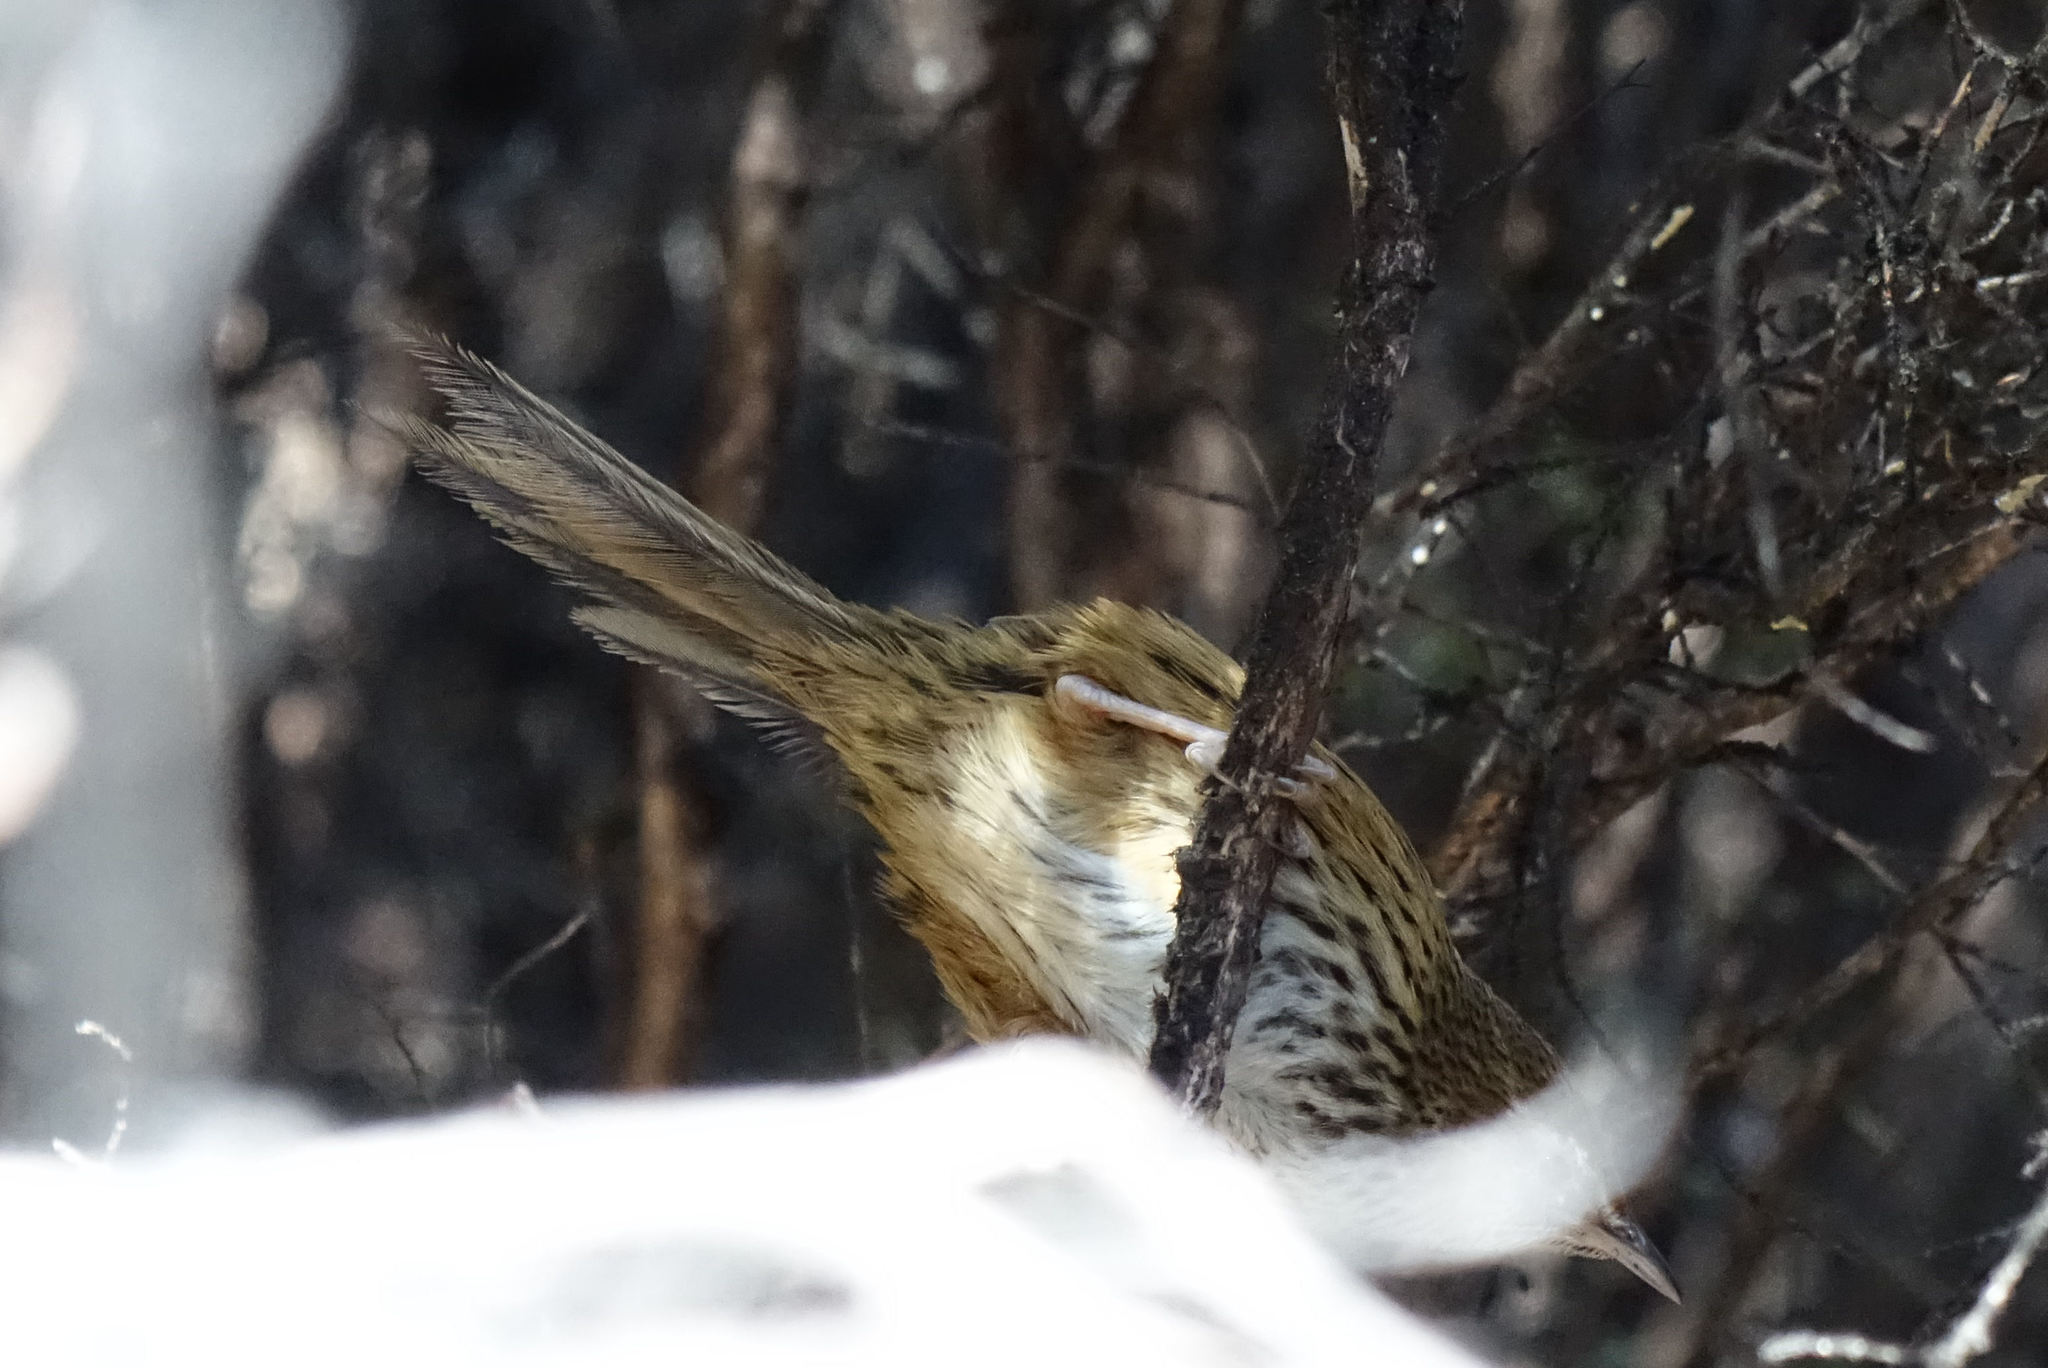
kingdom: Animalia
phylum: Chordata
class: Aves
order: Passeriformes
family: Locustellidae
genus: Poodytes
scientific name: Poodytes punctatus
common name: New zealand fernbird
